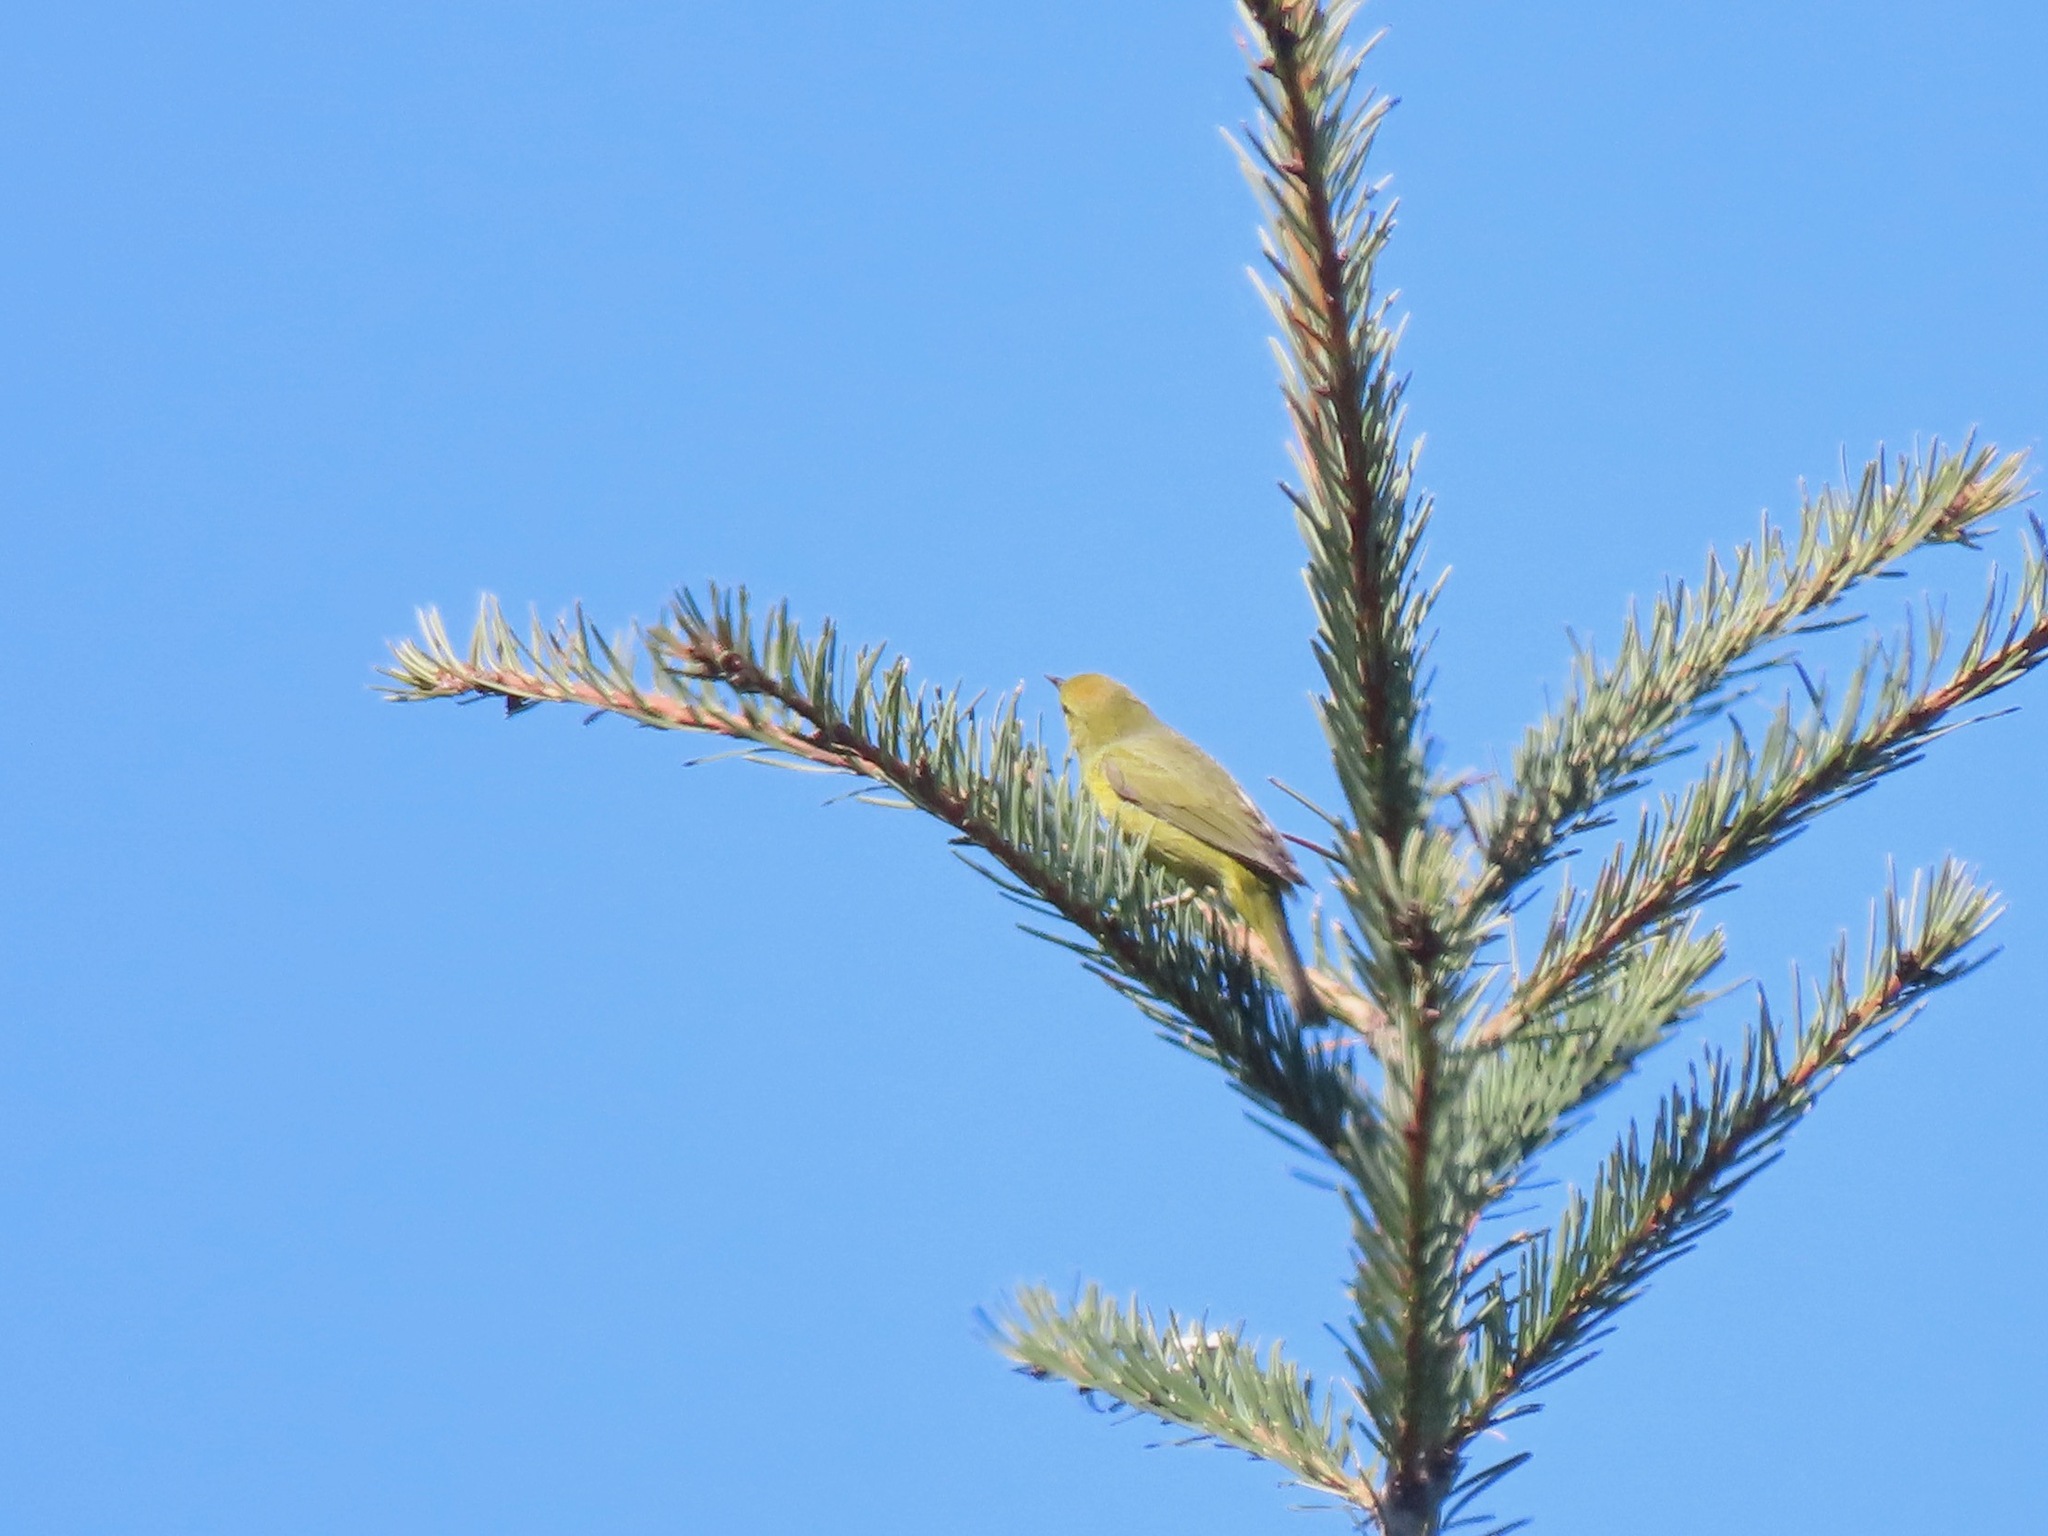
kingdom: Animalia
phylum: Chordata
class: Aves
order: Passeriformes
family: Parulidae
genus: Leiothlypis
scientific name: Leiothlypis celata
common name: Orange-crowned warbler
